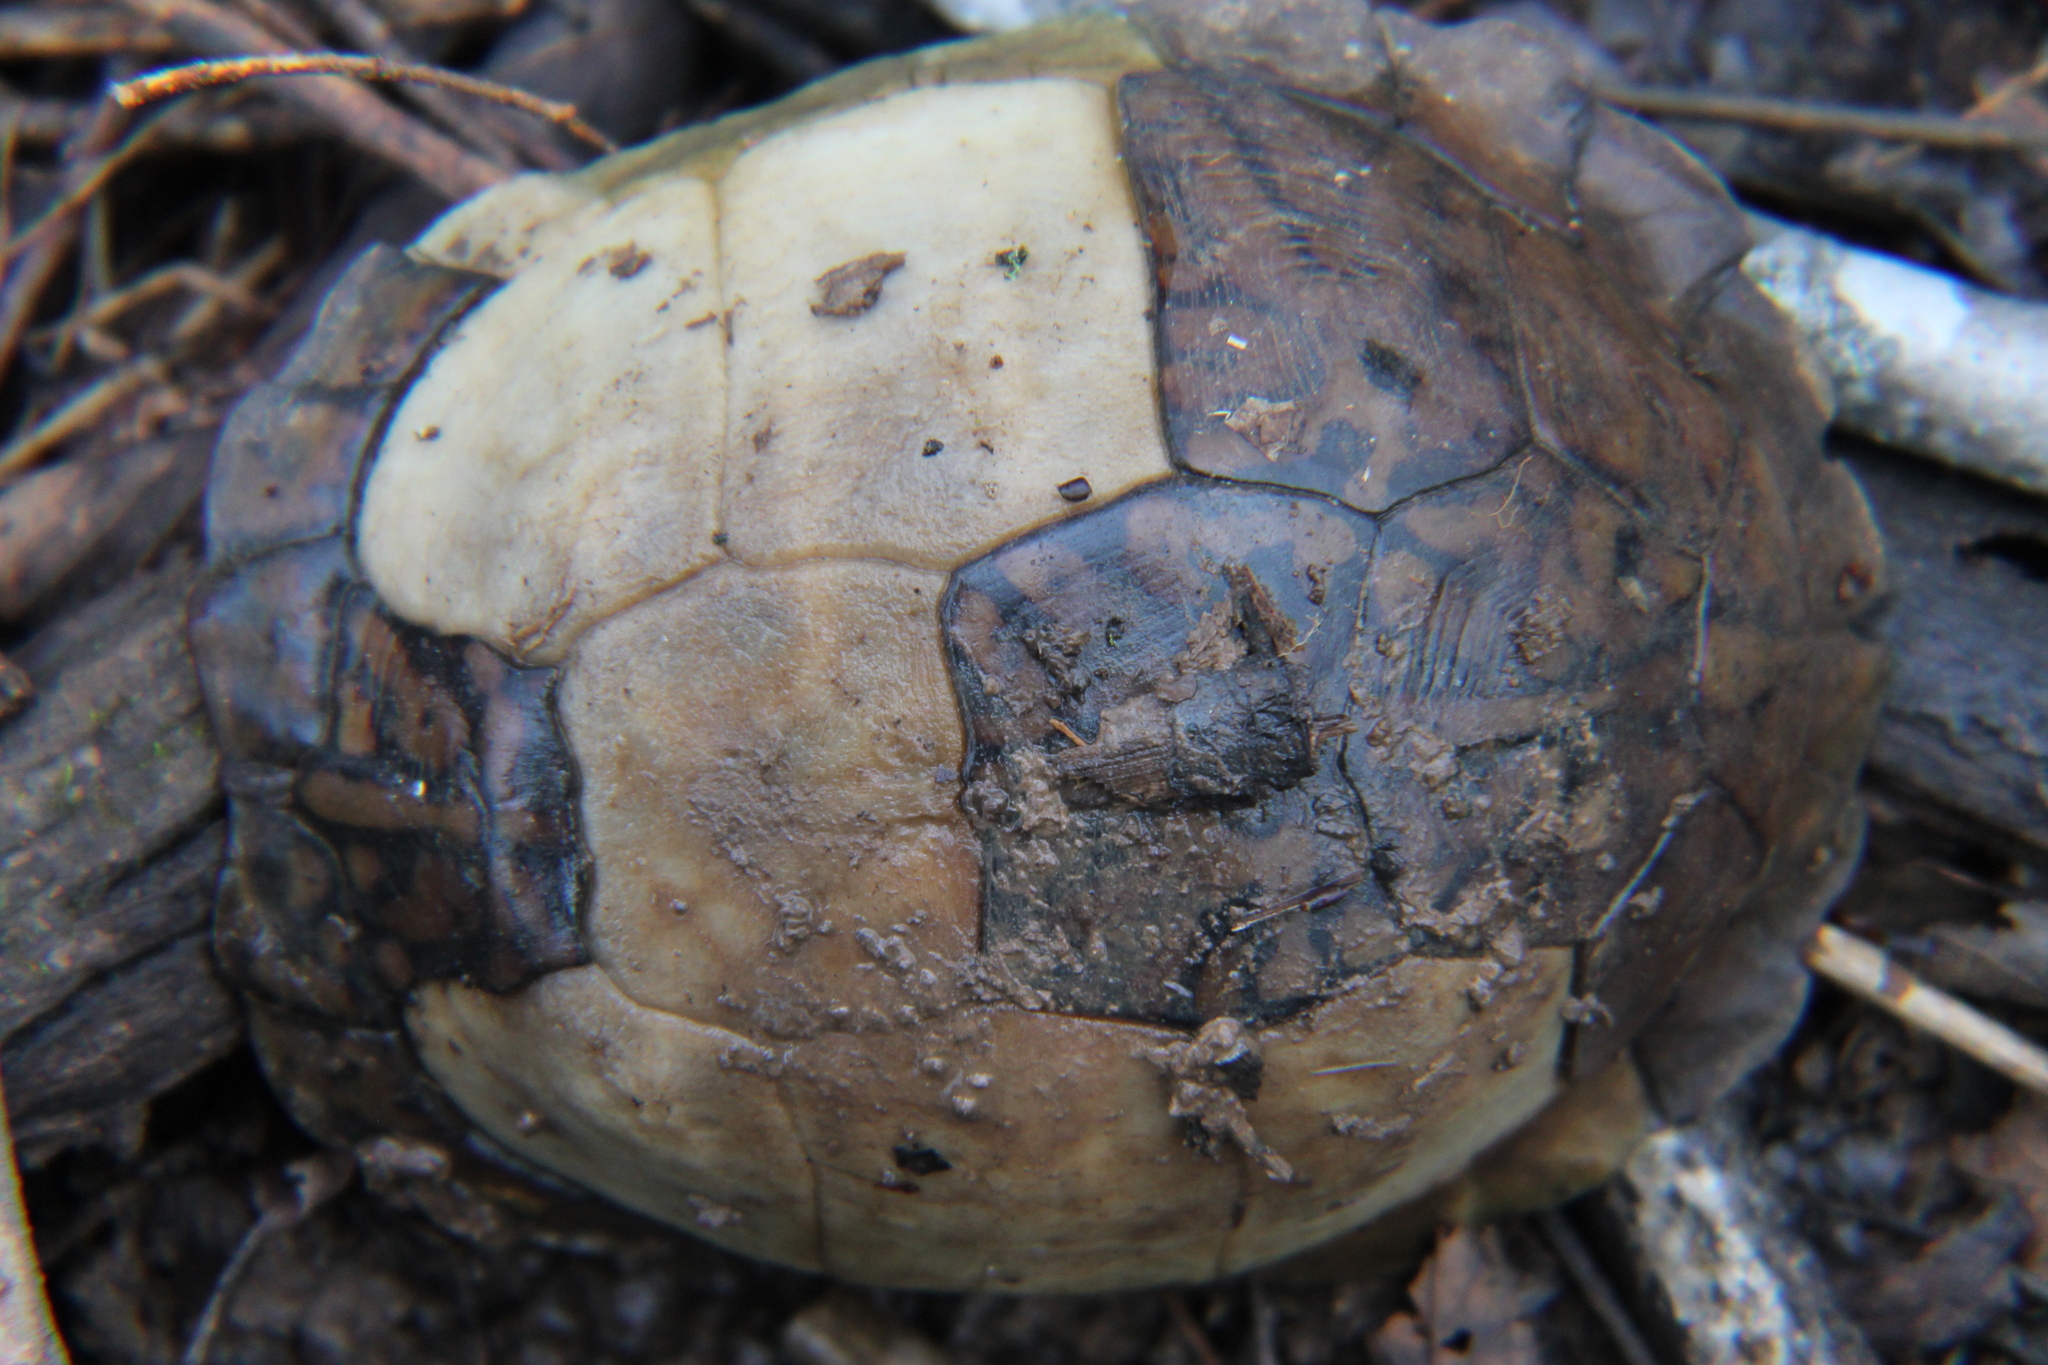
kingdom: Animalia
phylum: Chordata
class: Testudines
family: Emydidae
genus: Terrapene
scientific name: Terrapene carolina
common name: Common box turtle
